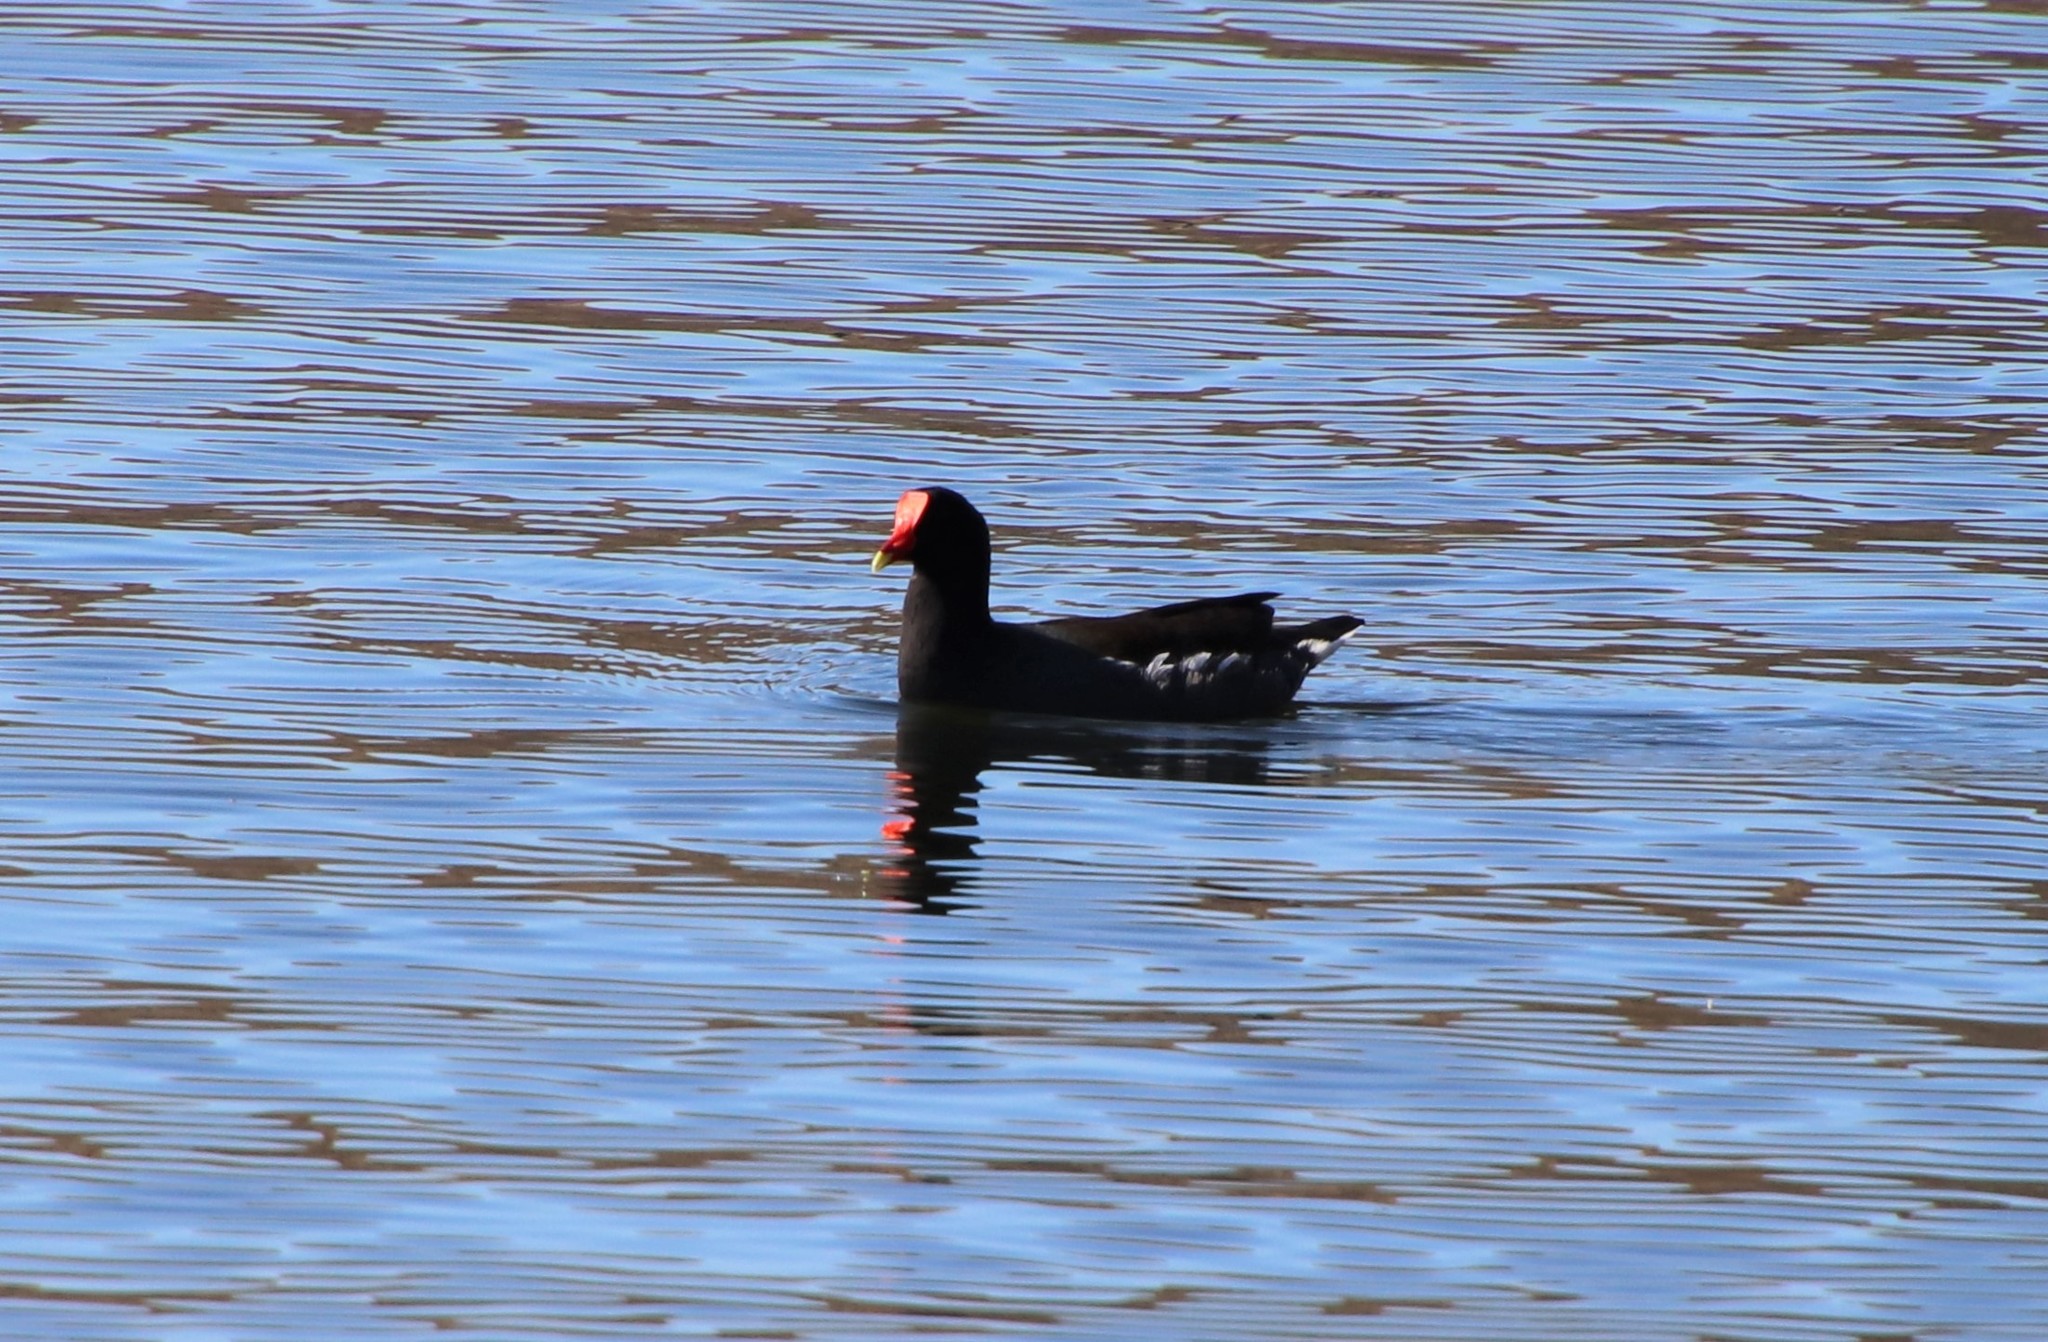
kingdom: Animalia
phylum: Chordata
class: Aves
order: Gruiformes
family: Rallidae
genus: Gallinula
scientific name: Gallinula chloropus
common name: Common moorhen
